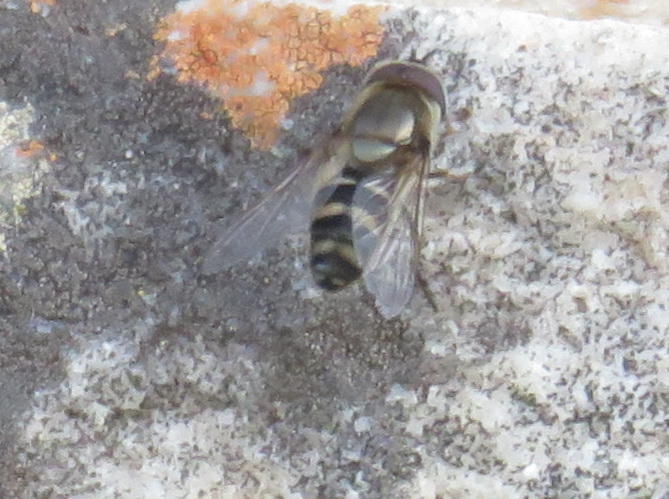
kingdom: Animalia
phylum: Arthropoda
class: Insecta
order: Diptera
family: Syrphidae
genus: Betasyrphus
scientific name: Betasyrphus intersectus
